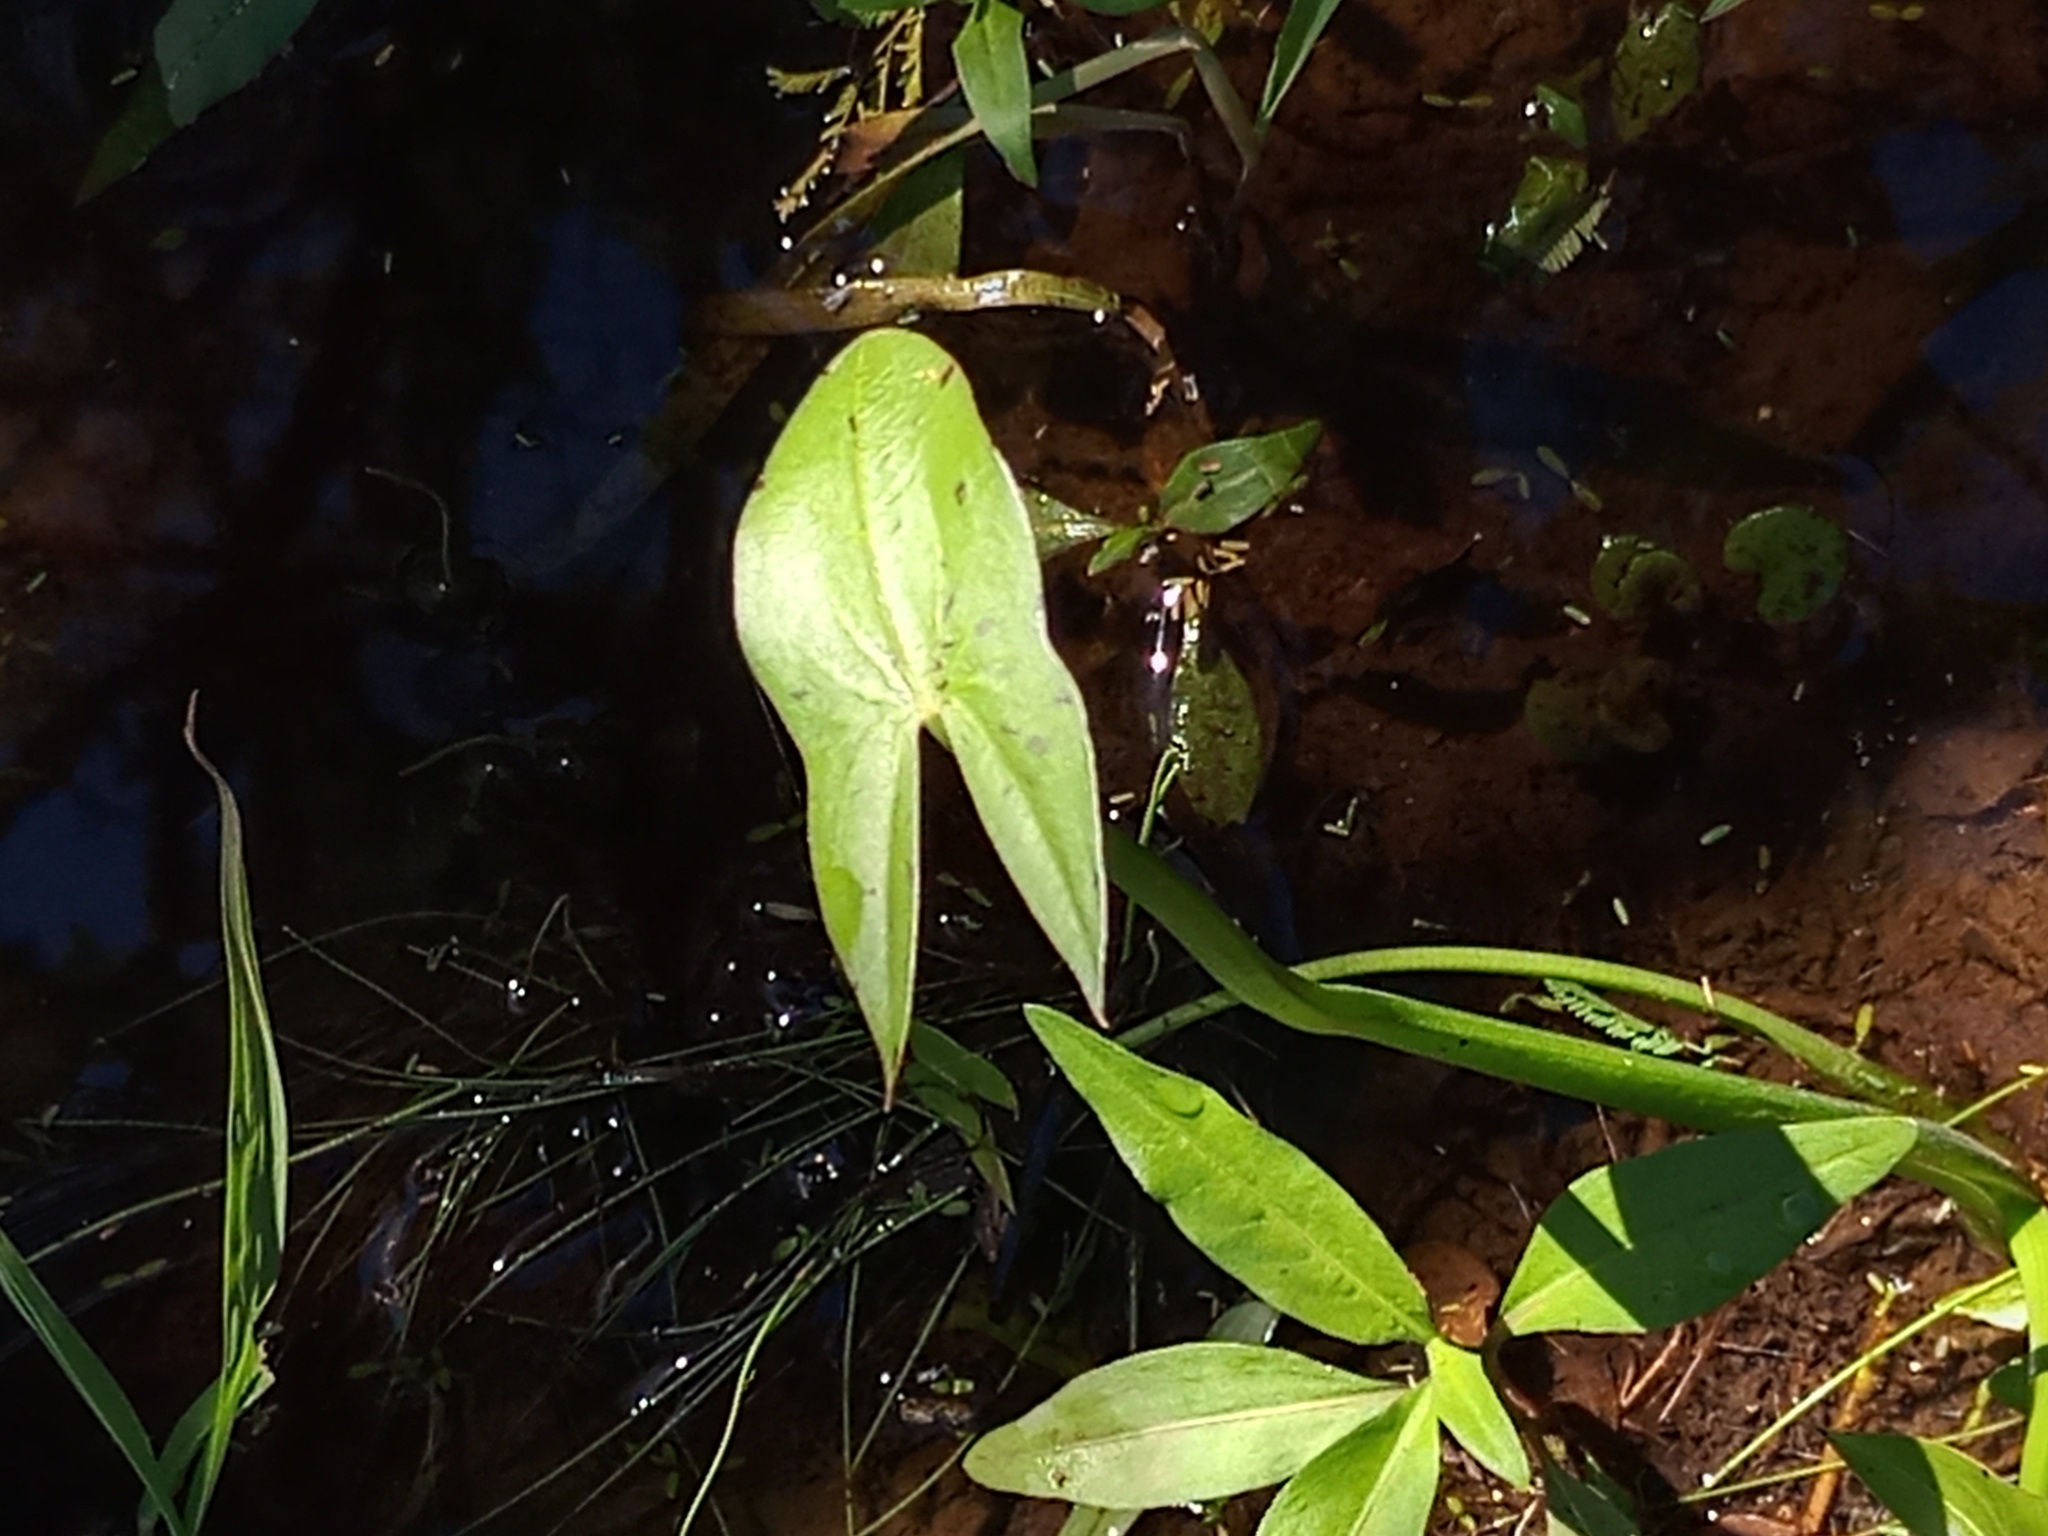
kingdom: Plantae
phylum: Tracheophyta
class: Liliopsida
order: Alismatales
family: Alismataceae
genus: Sagittaria
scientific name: Sagittaria montevidensis
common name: Giant arrowhead
